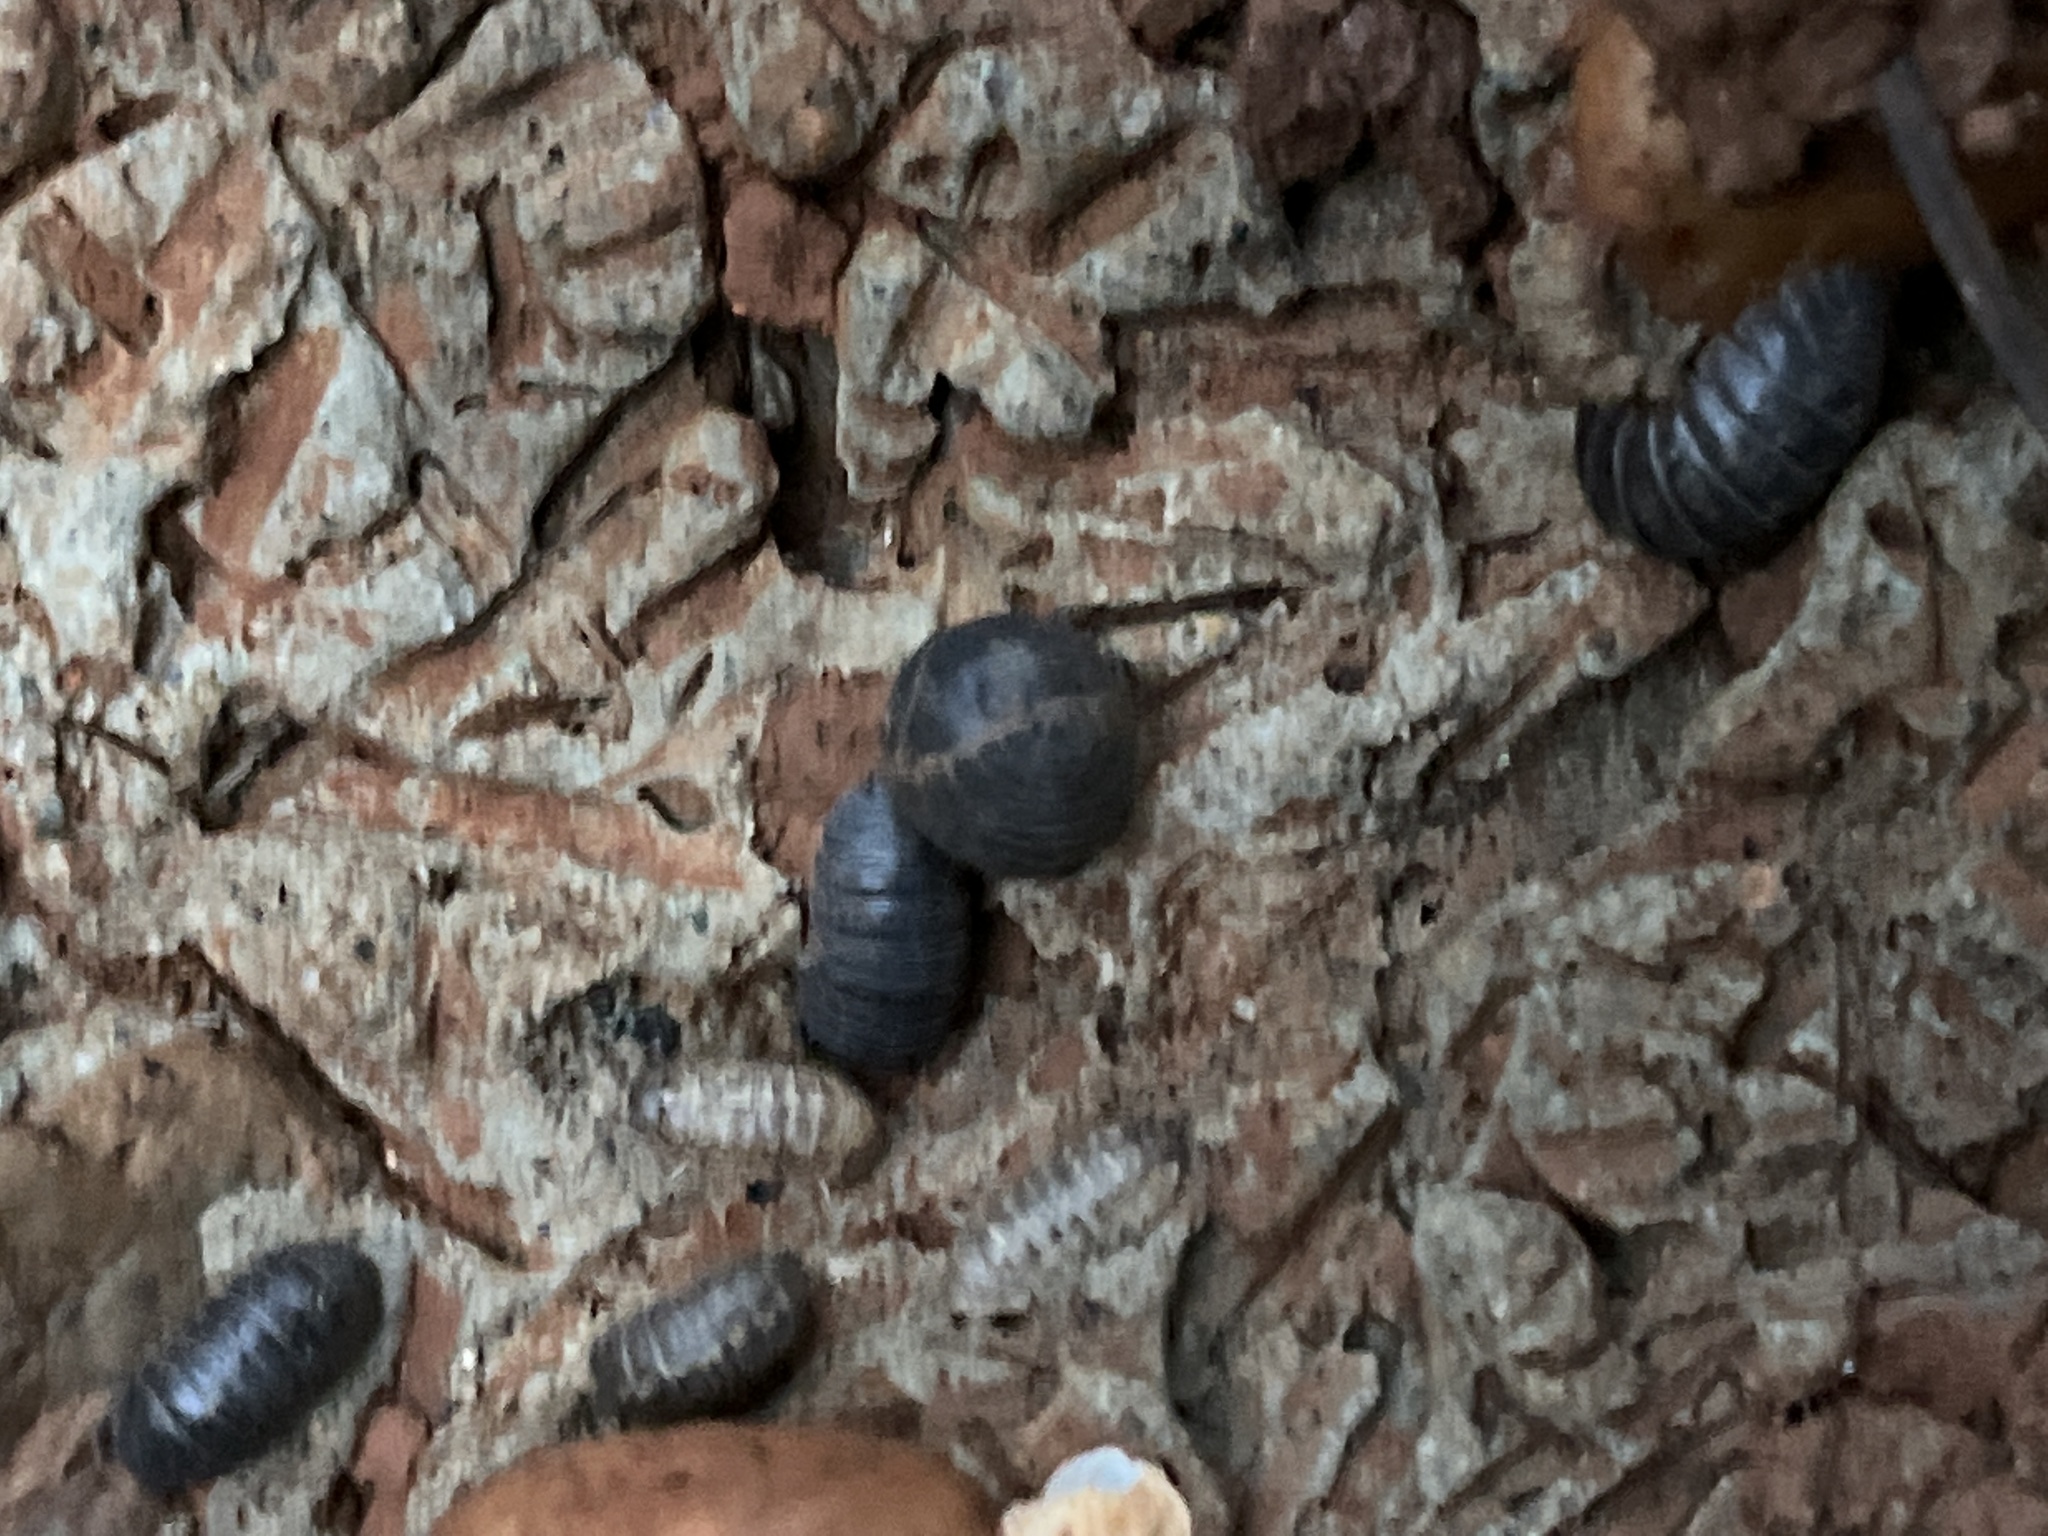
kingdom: Animalia
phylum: Arthropoda
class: Malacostraca
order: Isopoda
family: Armadillidiidae
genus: Armadillidium
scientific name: Armadillidium vulgare
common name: Common pill woodlouse
